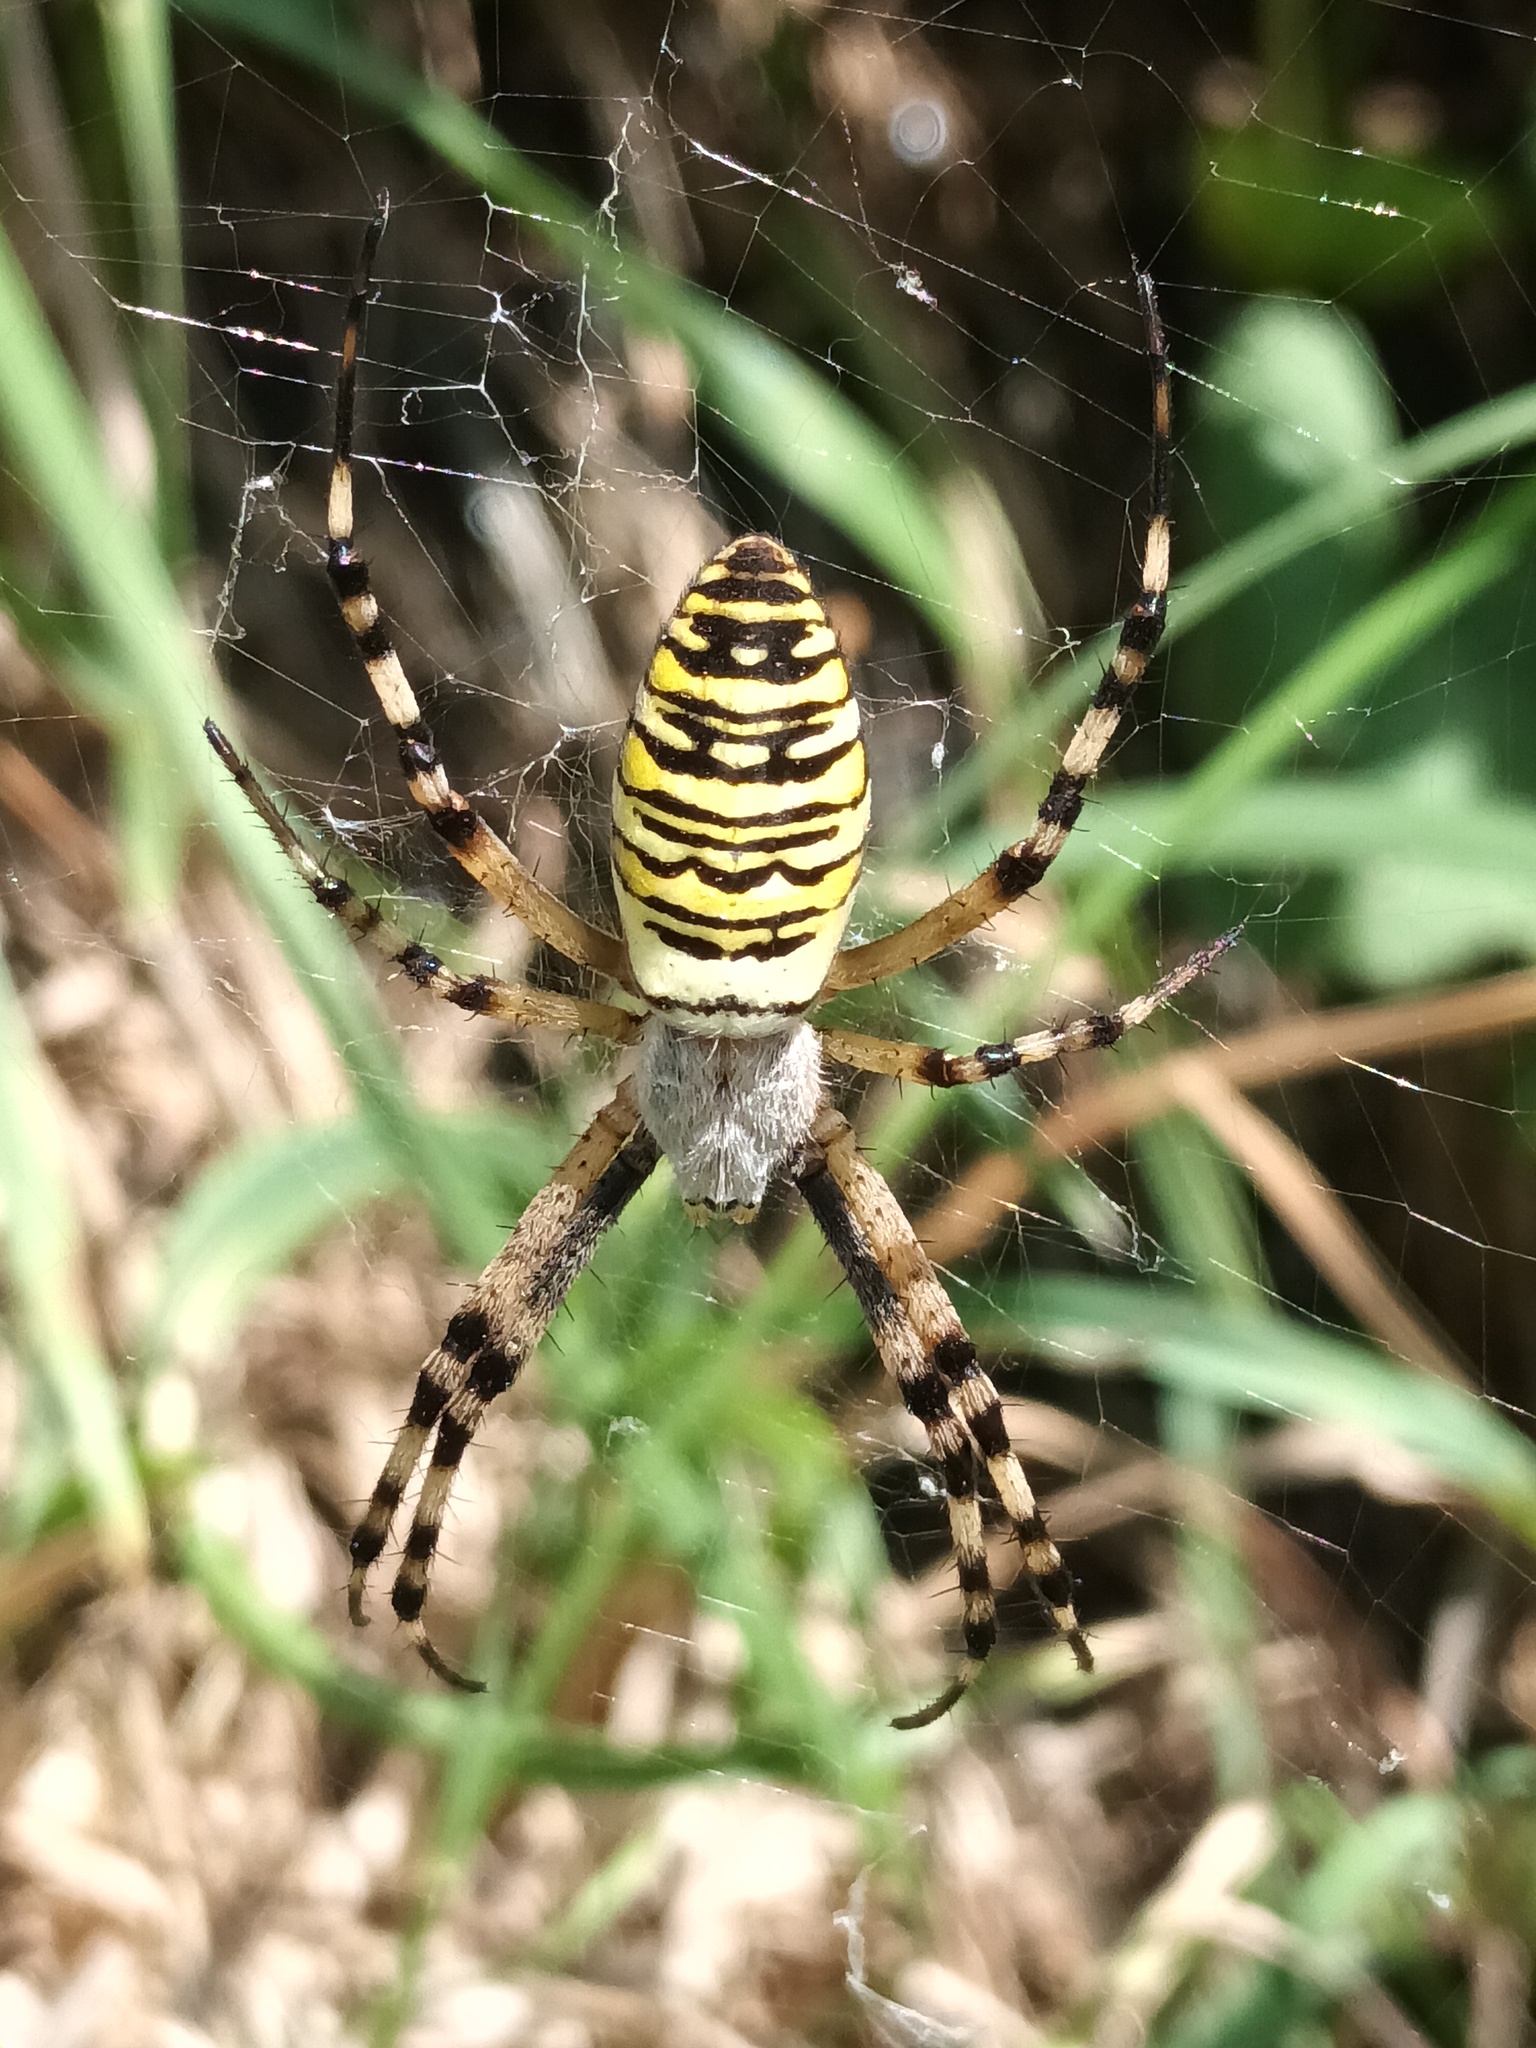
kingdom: Animalia
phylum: Arthropoda
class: Arachnida
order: Araneae
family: Araneidae
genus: Argiope
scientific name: Argiope bruennichi
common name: Wasp spider
